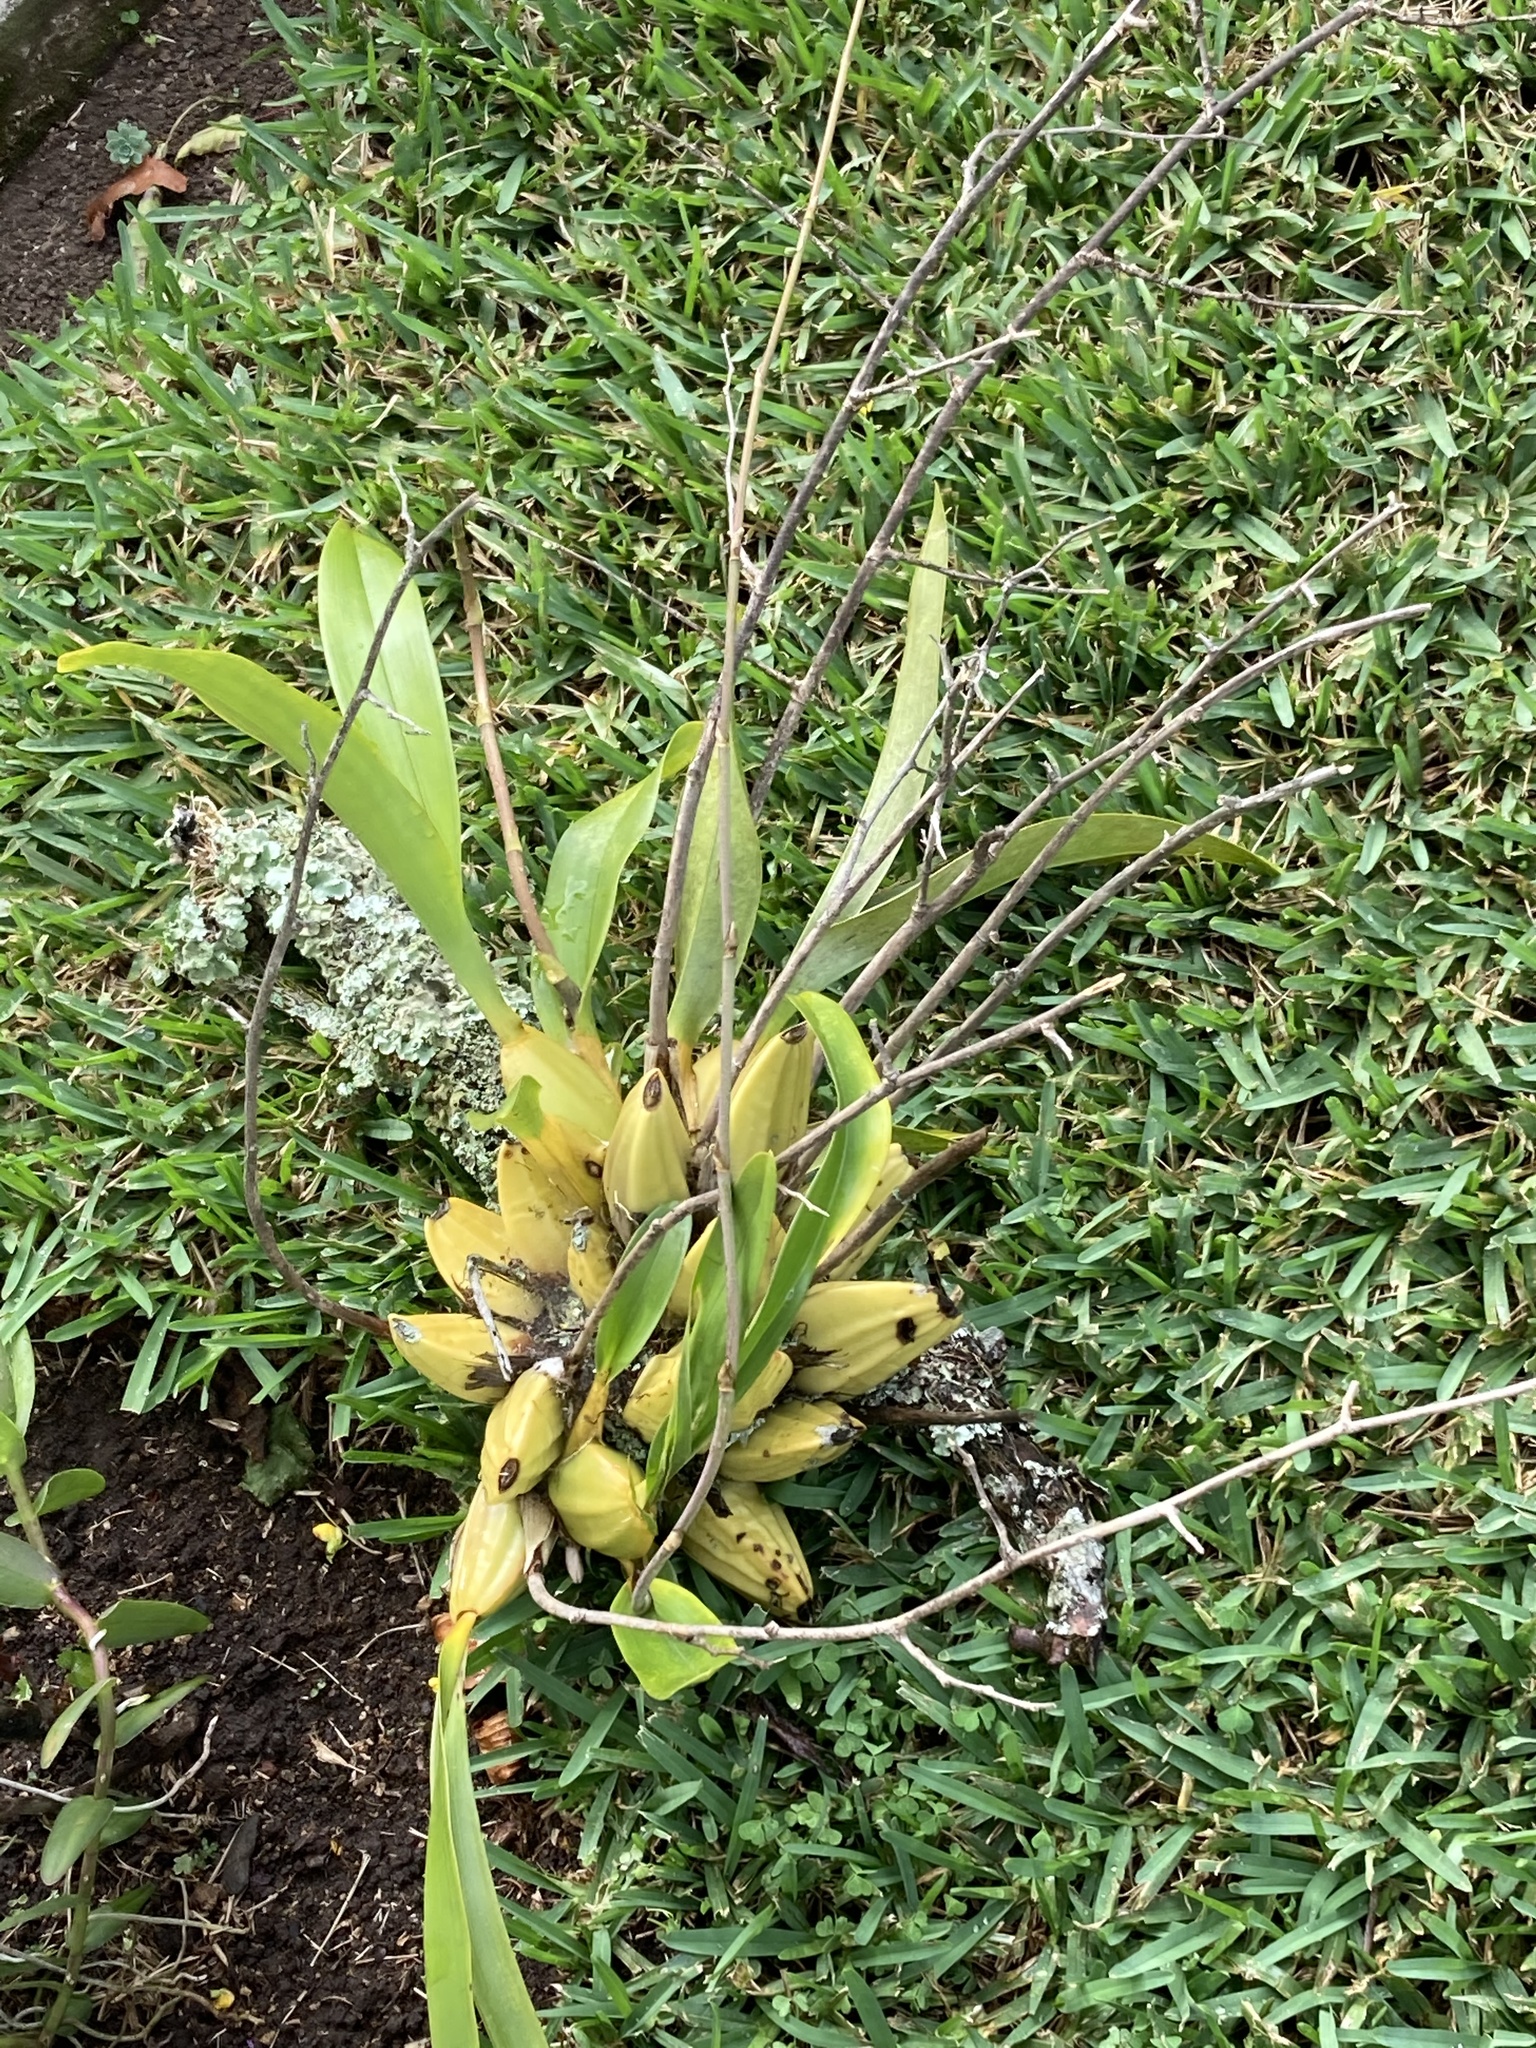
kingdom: Plantae
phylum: Tracheophyta
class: Liliopsida
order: Asparagales
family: Orchidaceae
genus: Oncidium
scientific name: Oncidium leucochilum
